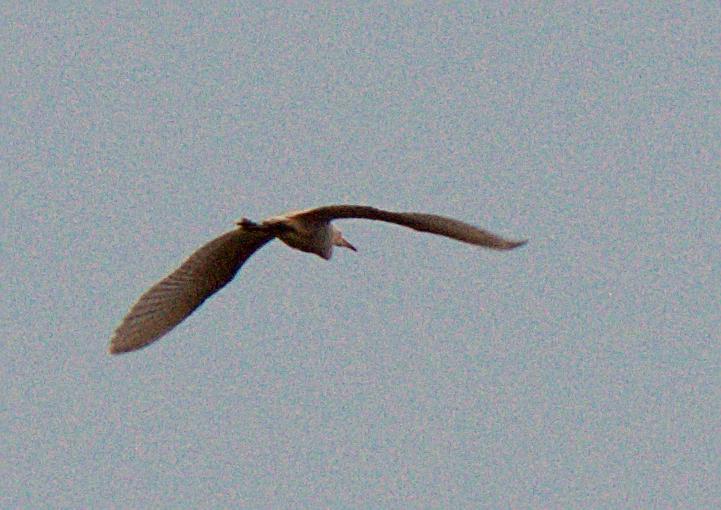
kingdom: Animalia
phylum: Chordata
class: Aves
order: Pelecaniformes
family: Ardeidae
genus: Bubulcus
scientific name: Bubulcus coromandus
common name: Eastern cattle egret
